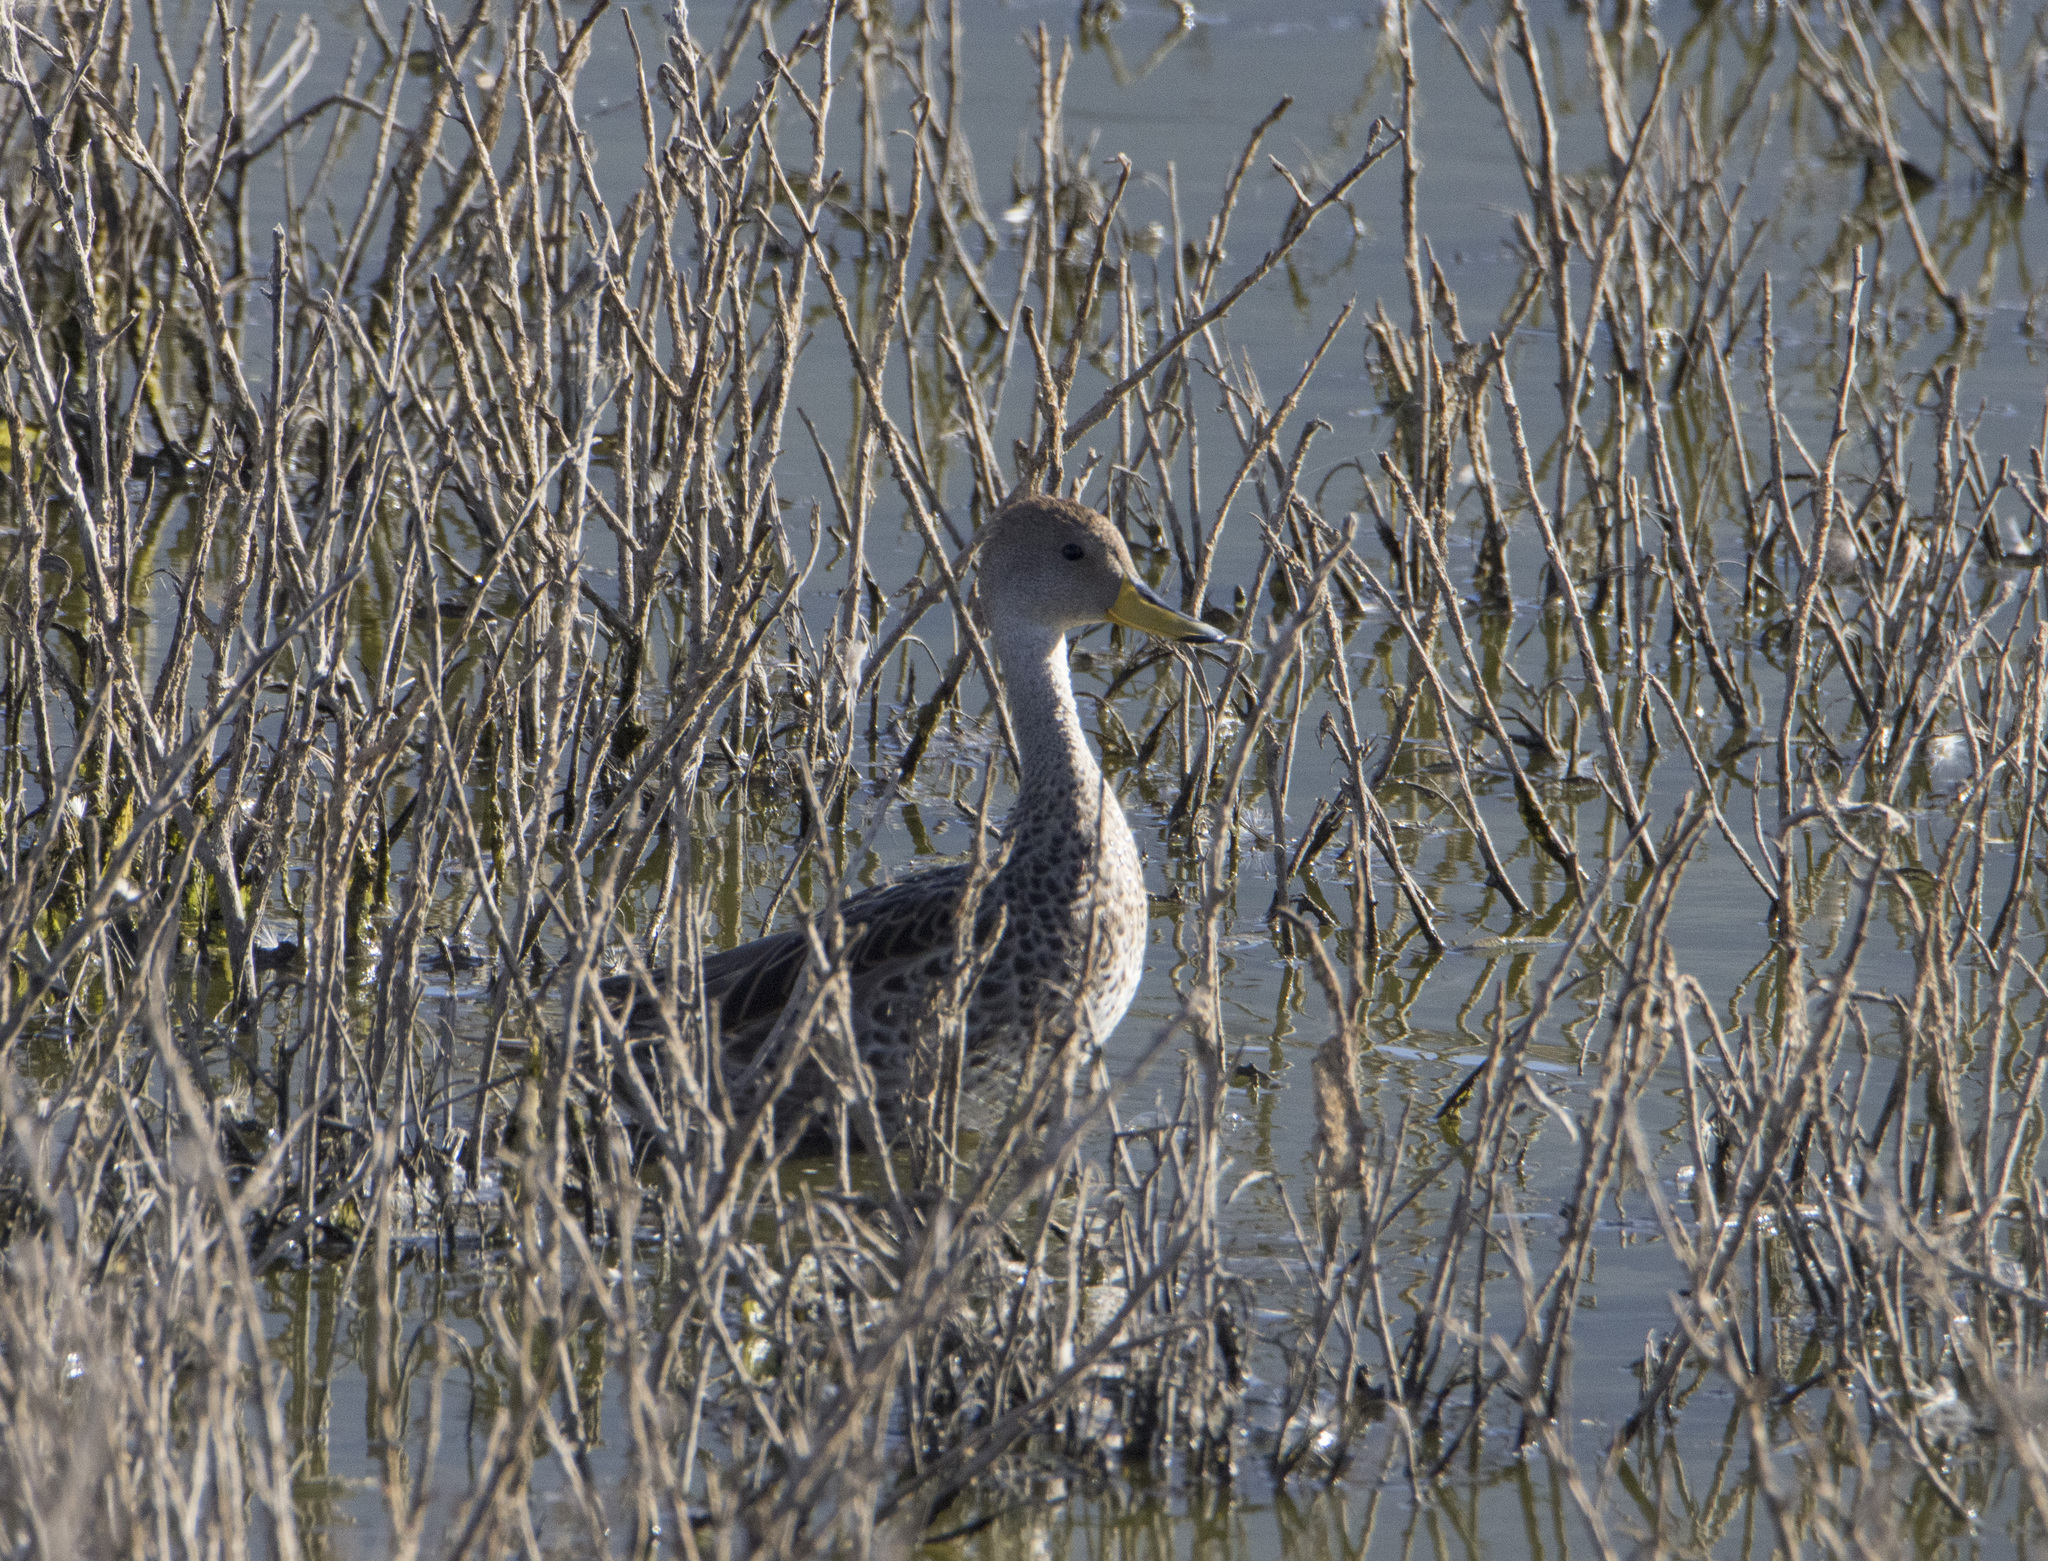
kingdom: Animalia
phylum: Chordata
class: Aves
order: Anseriformes
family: Anatidae
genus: Anas
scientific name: Anas georgica
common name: Yellow-billed pintail
